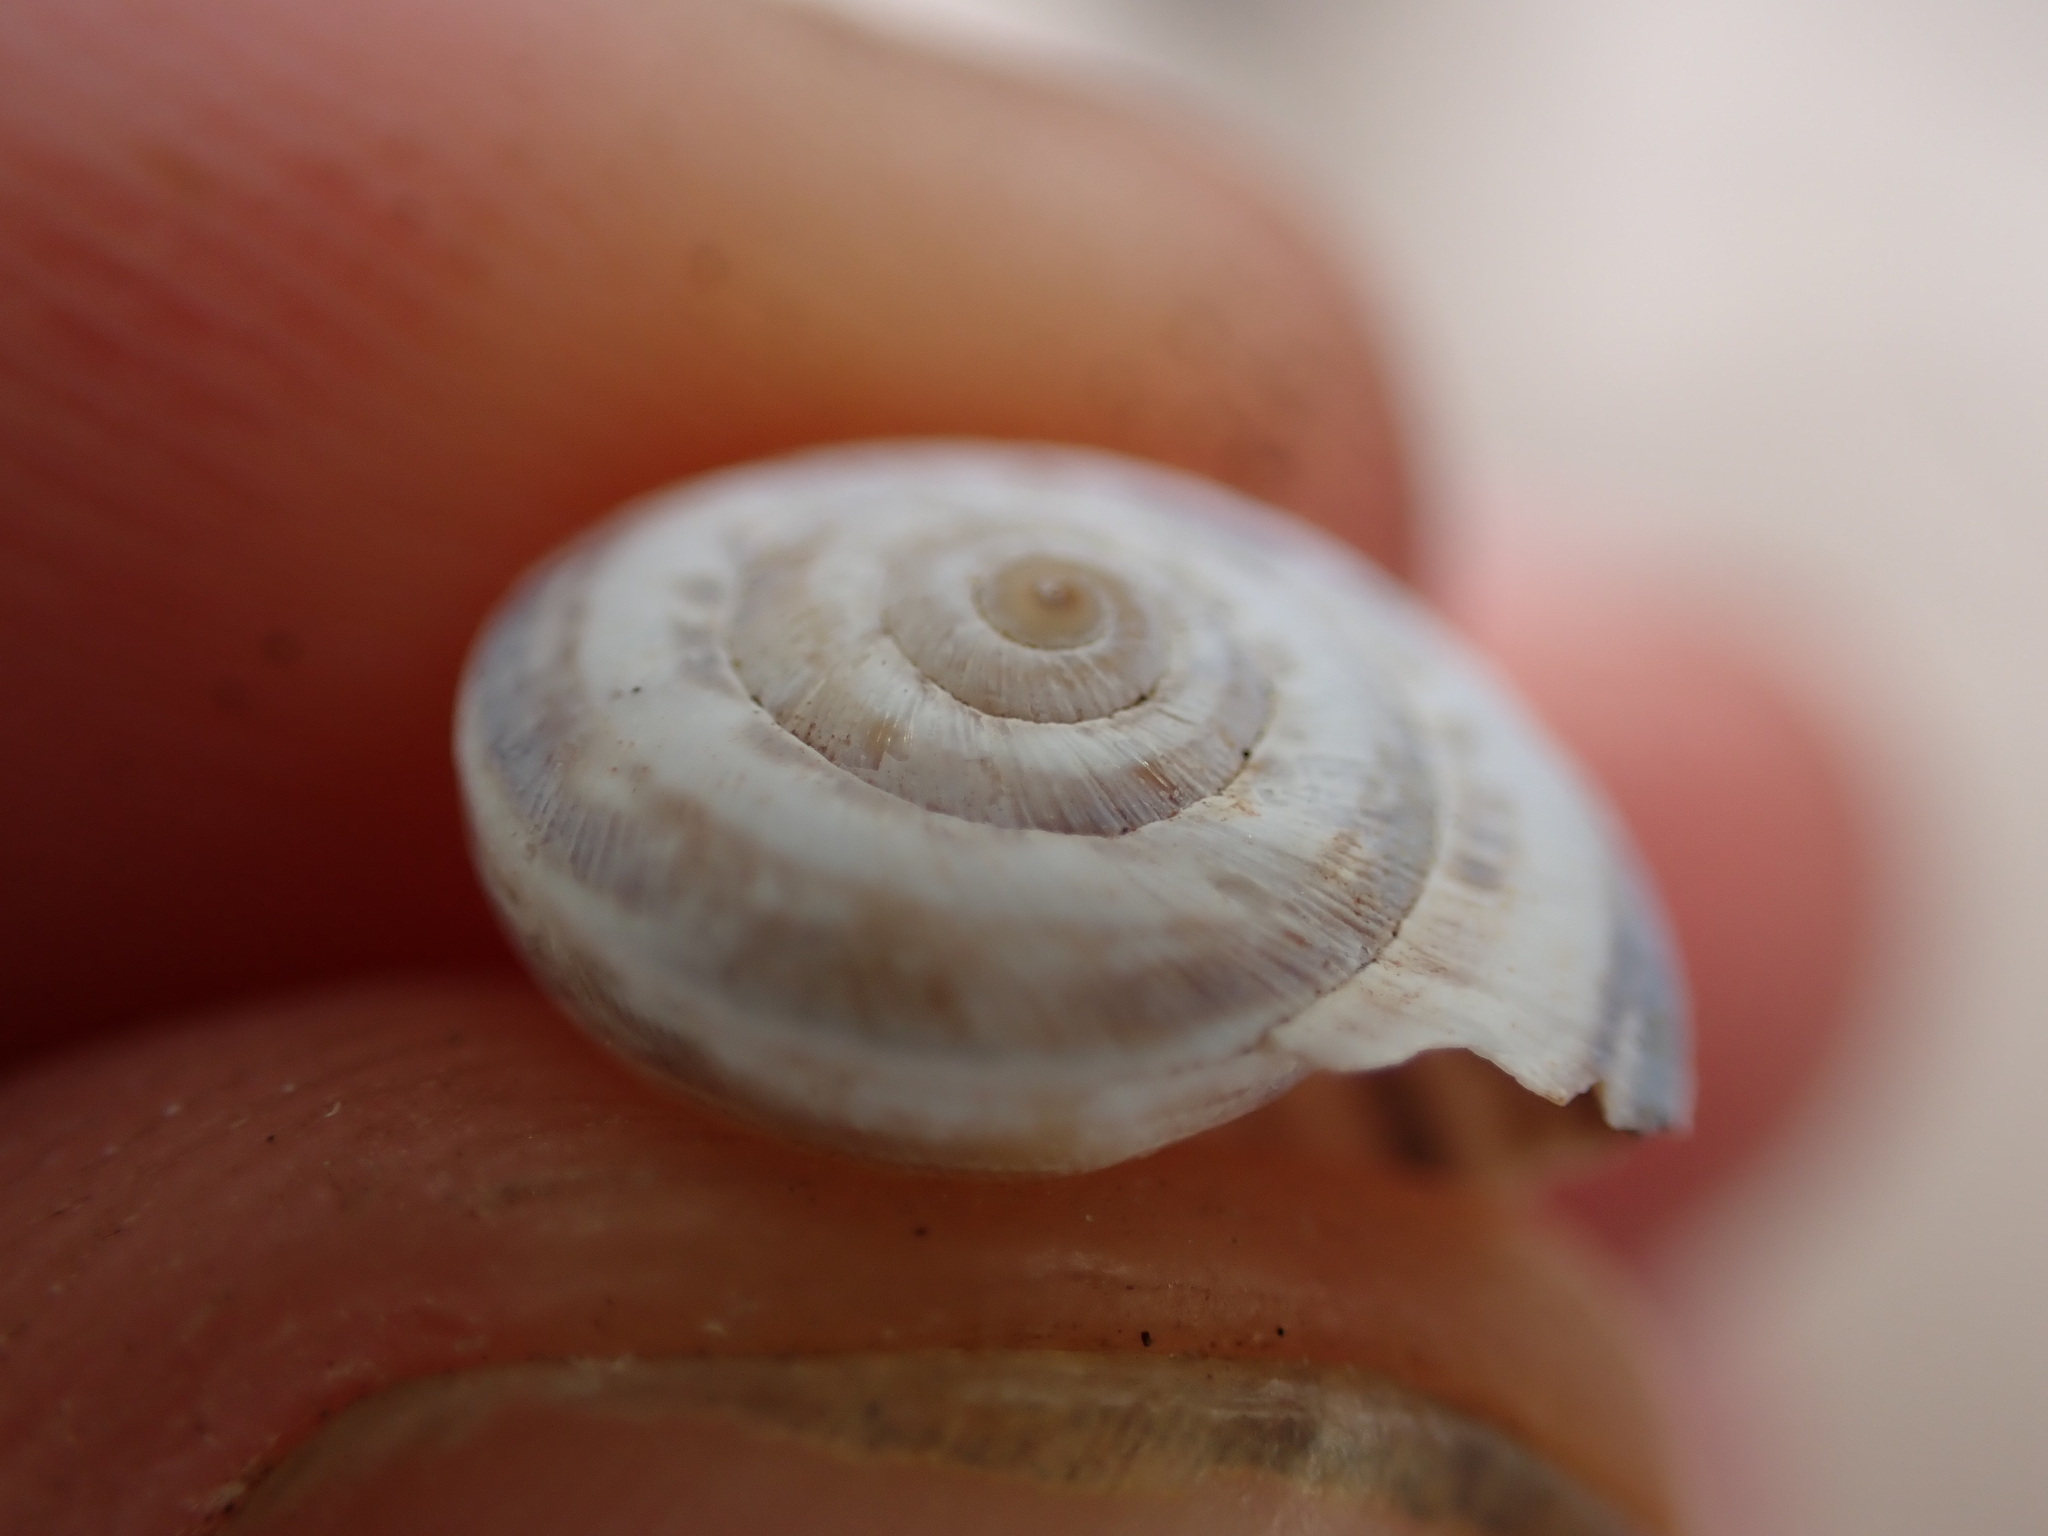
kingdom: Animalia
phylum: Mollusca
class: Gastropoda
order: Stylommatophora
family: Geomitridae
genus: Xerosecta
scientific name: Xerosecta cespitum
